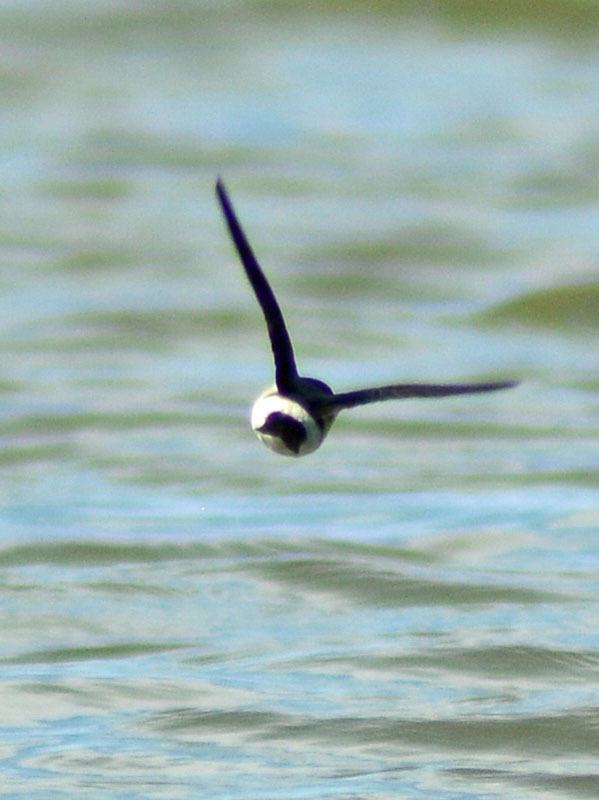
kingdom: Animalia
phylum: Chordata
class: Aves
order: Passeriformes
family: Hirundinidae
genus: Tachycineta
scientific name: Tachycineta albilinea
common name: Mangrove swallow
